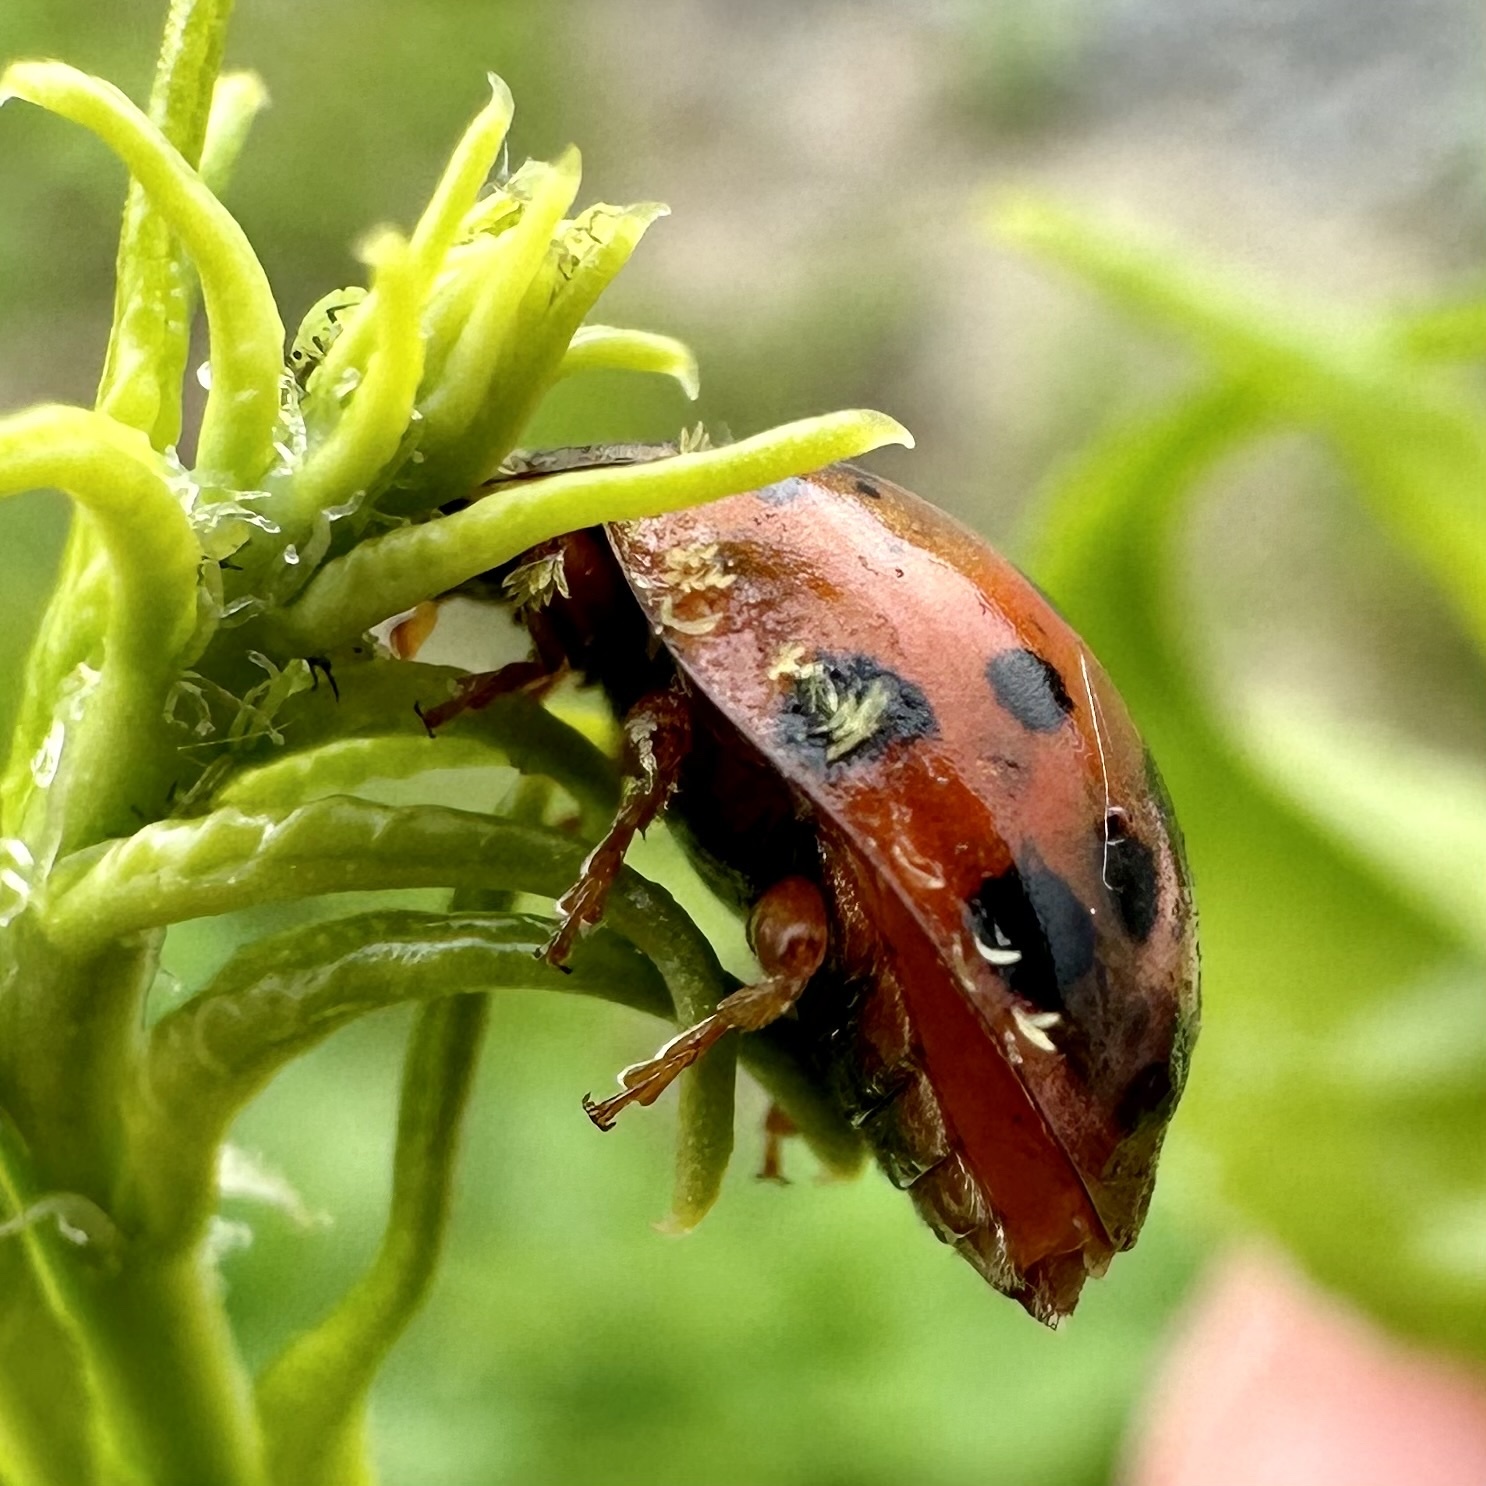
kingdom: Animalia
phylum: Arthropoda
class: Insecta
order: Coleoptera
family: Coccinellidae
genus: Harmonia
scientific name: Harmonia axyridis
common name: Harlequin ladybird
